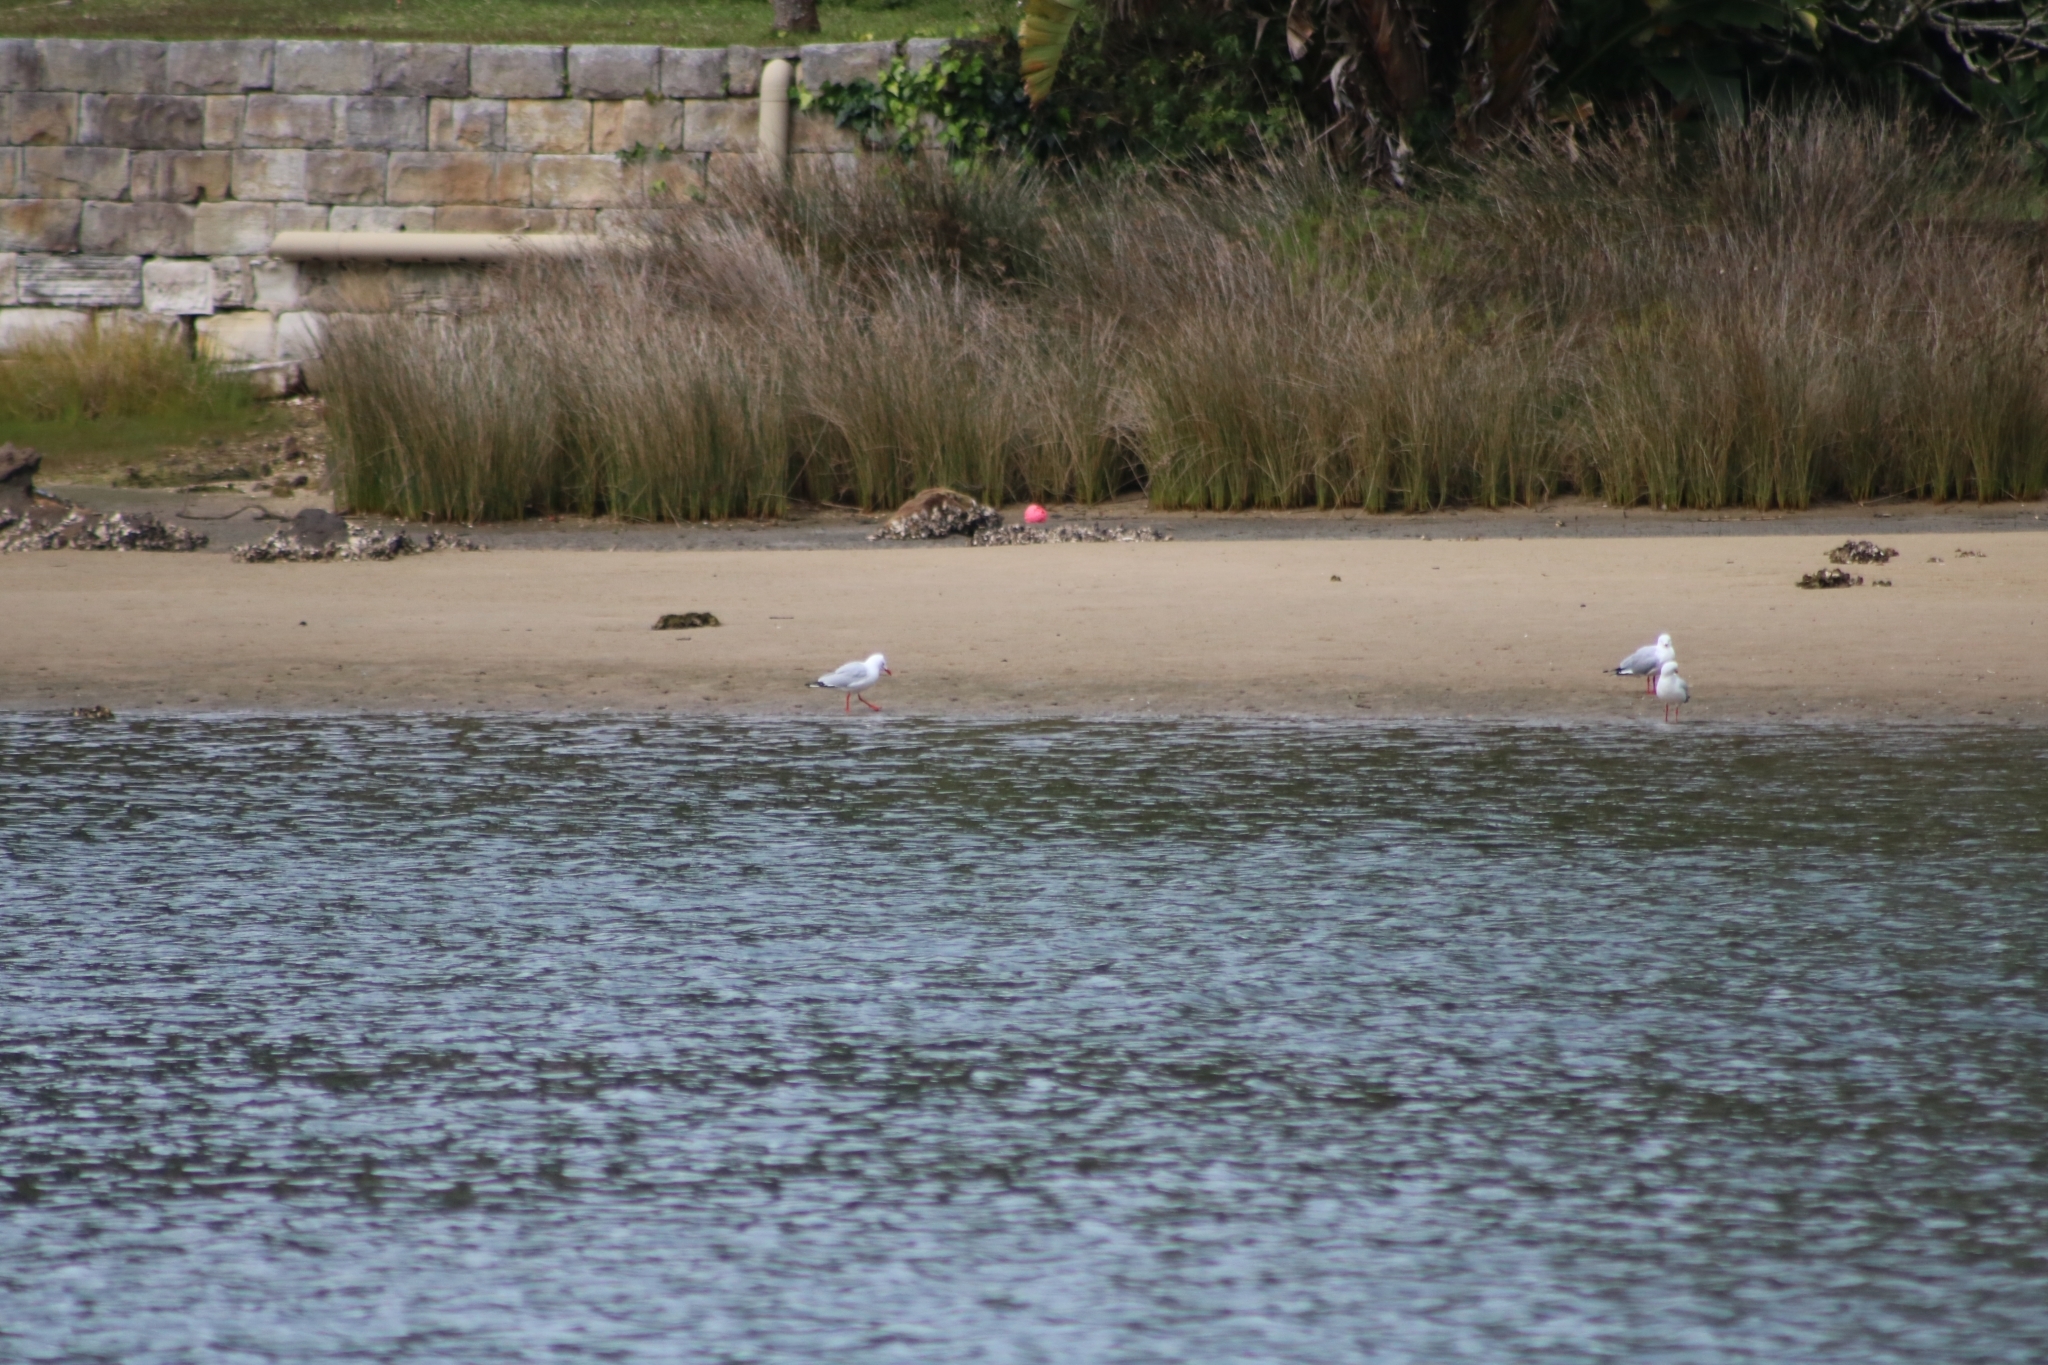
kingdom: Animalia
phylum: Chordata
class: Aves
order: Charadriiformes
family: Laridae
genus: Chroicocephalus
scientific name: Chroicocephalus novaehollandiae
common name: Silver gull
